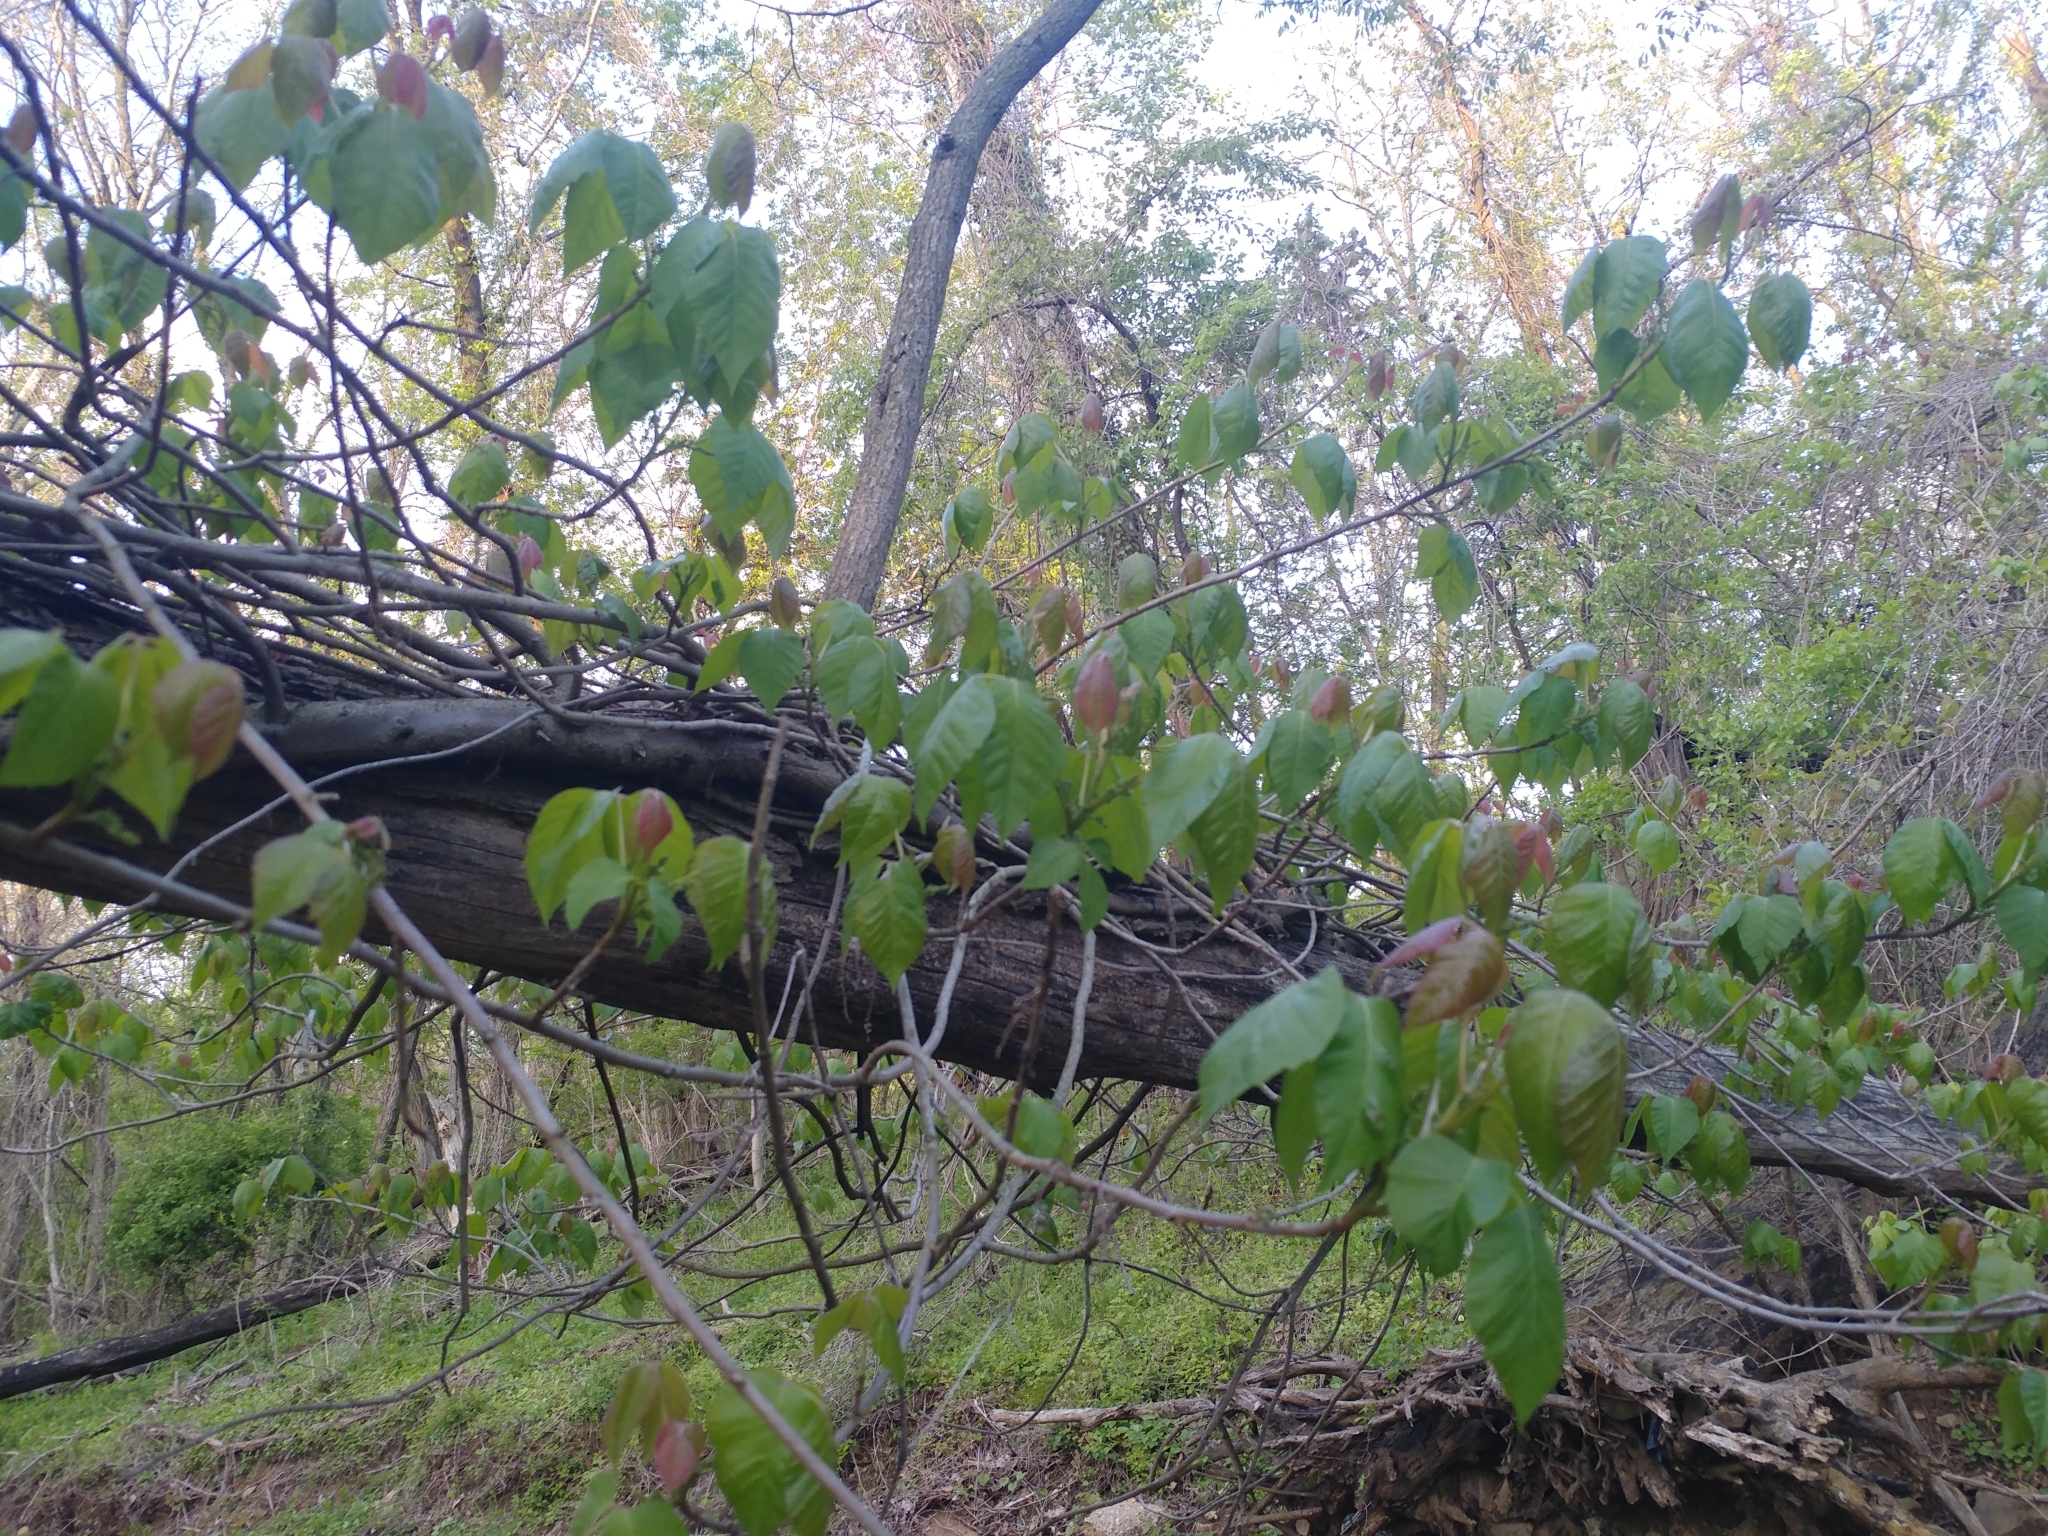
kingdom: Plantae
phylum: Tracheophyta
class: Magnoliopsida
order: Sapindales
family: Anacardiaceae
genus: Toxicodendron
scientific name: Toxicodendron radicans
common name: Poison ivy
